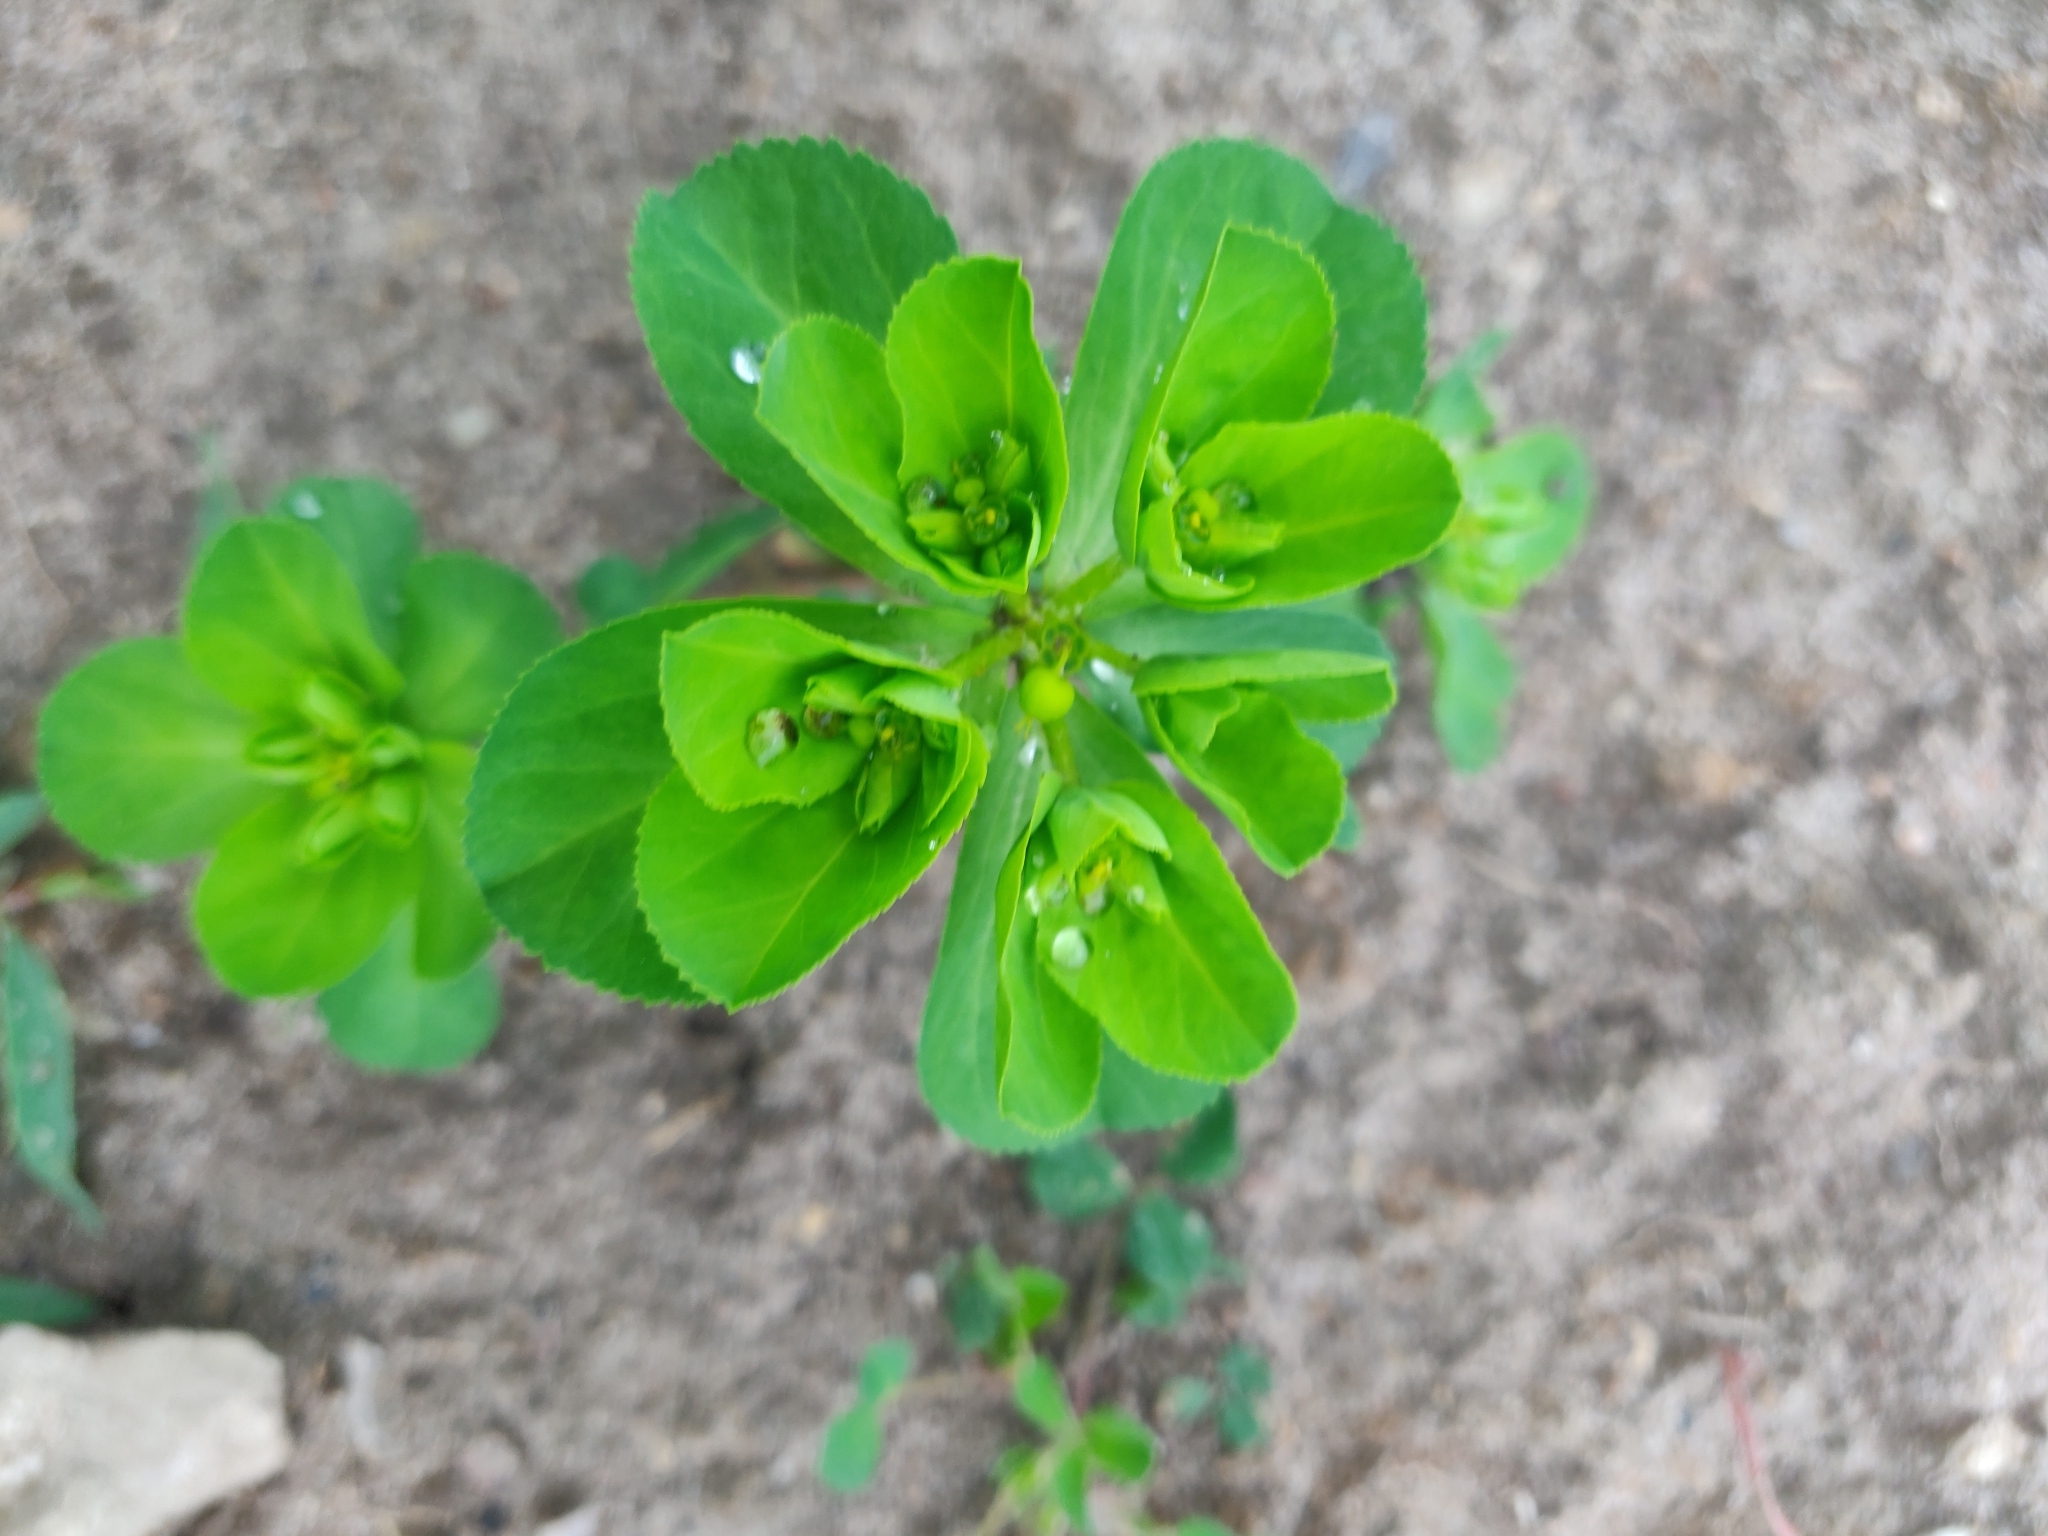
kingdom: Plantae
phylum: Tracheophyta
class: Magnoliopsida
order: Malpighiales
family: Euphorbiaceae
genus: Euphorbia
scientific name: Euphorbia helioscopia
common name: Sun spurge
